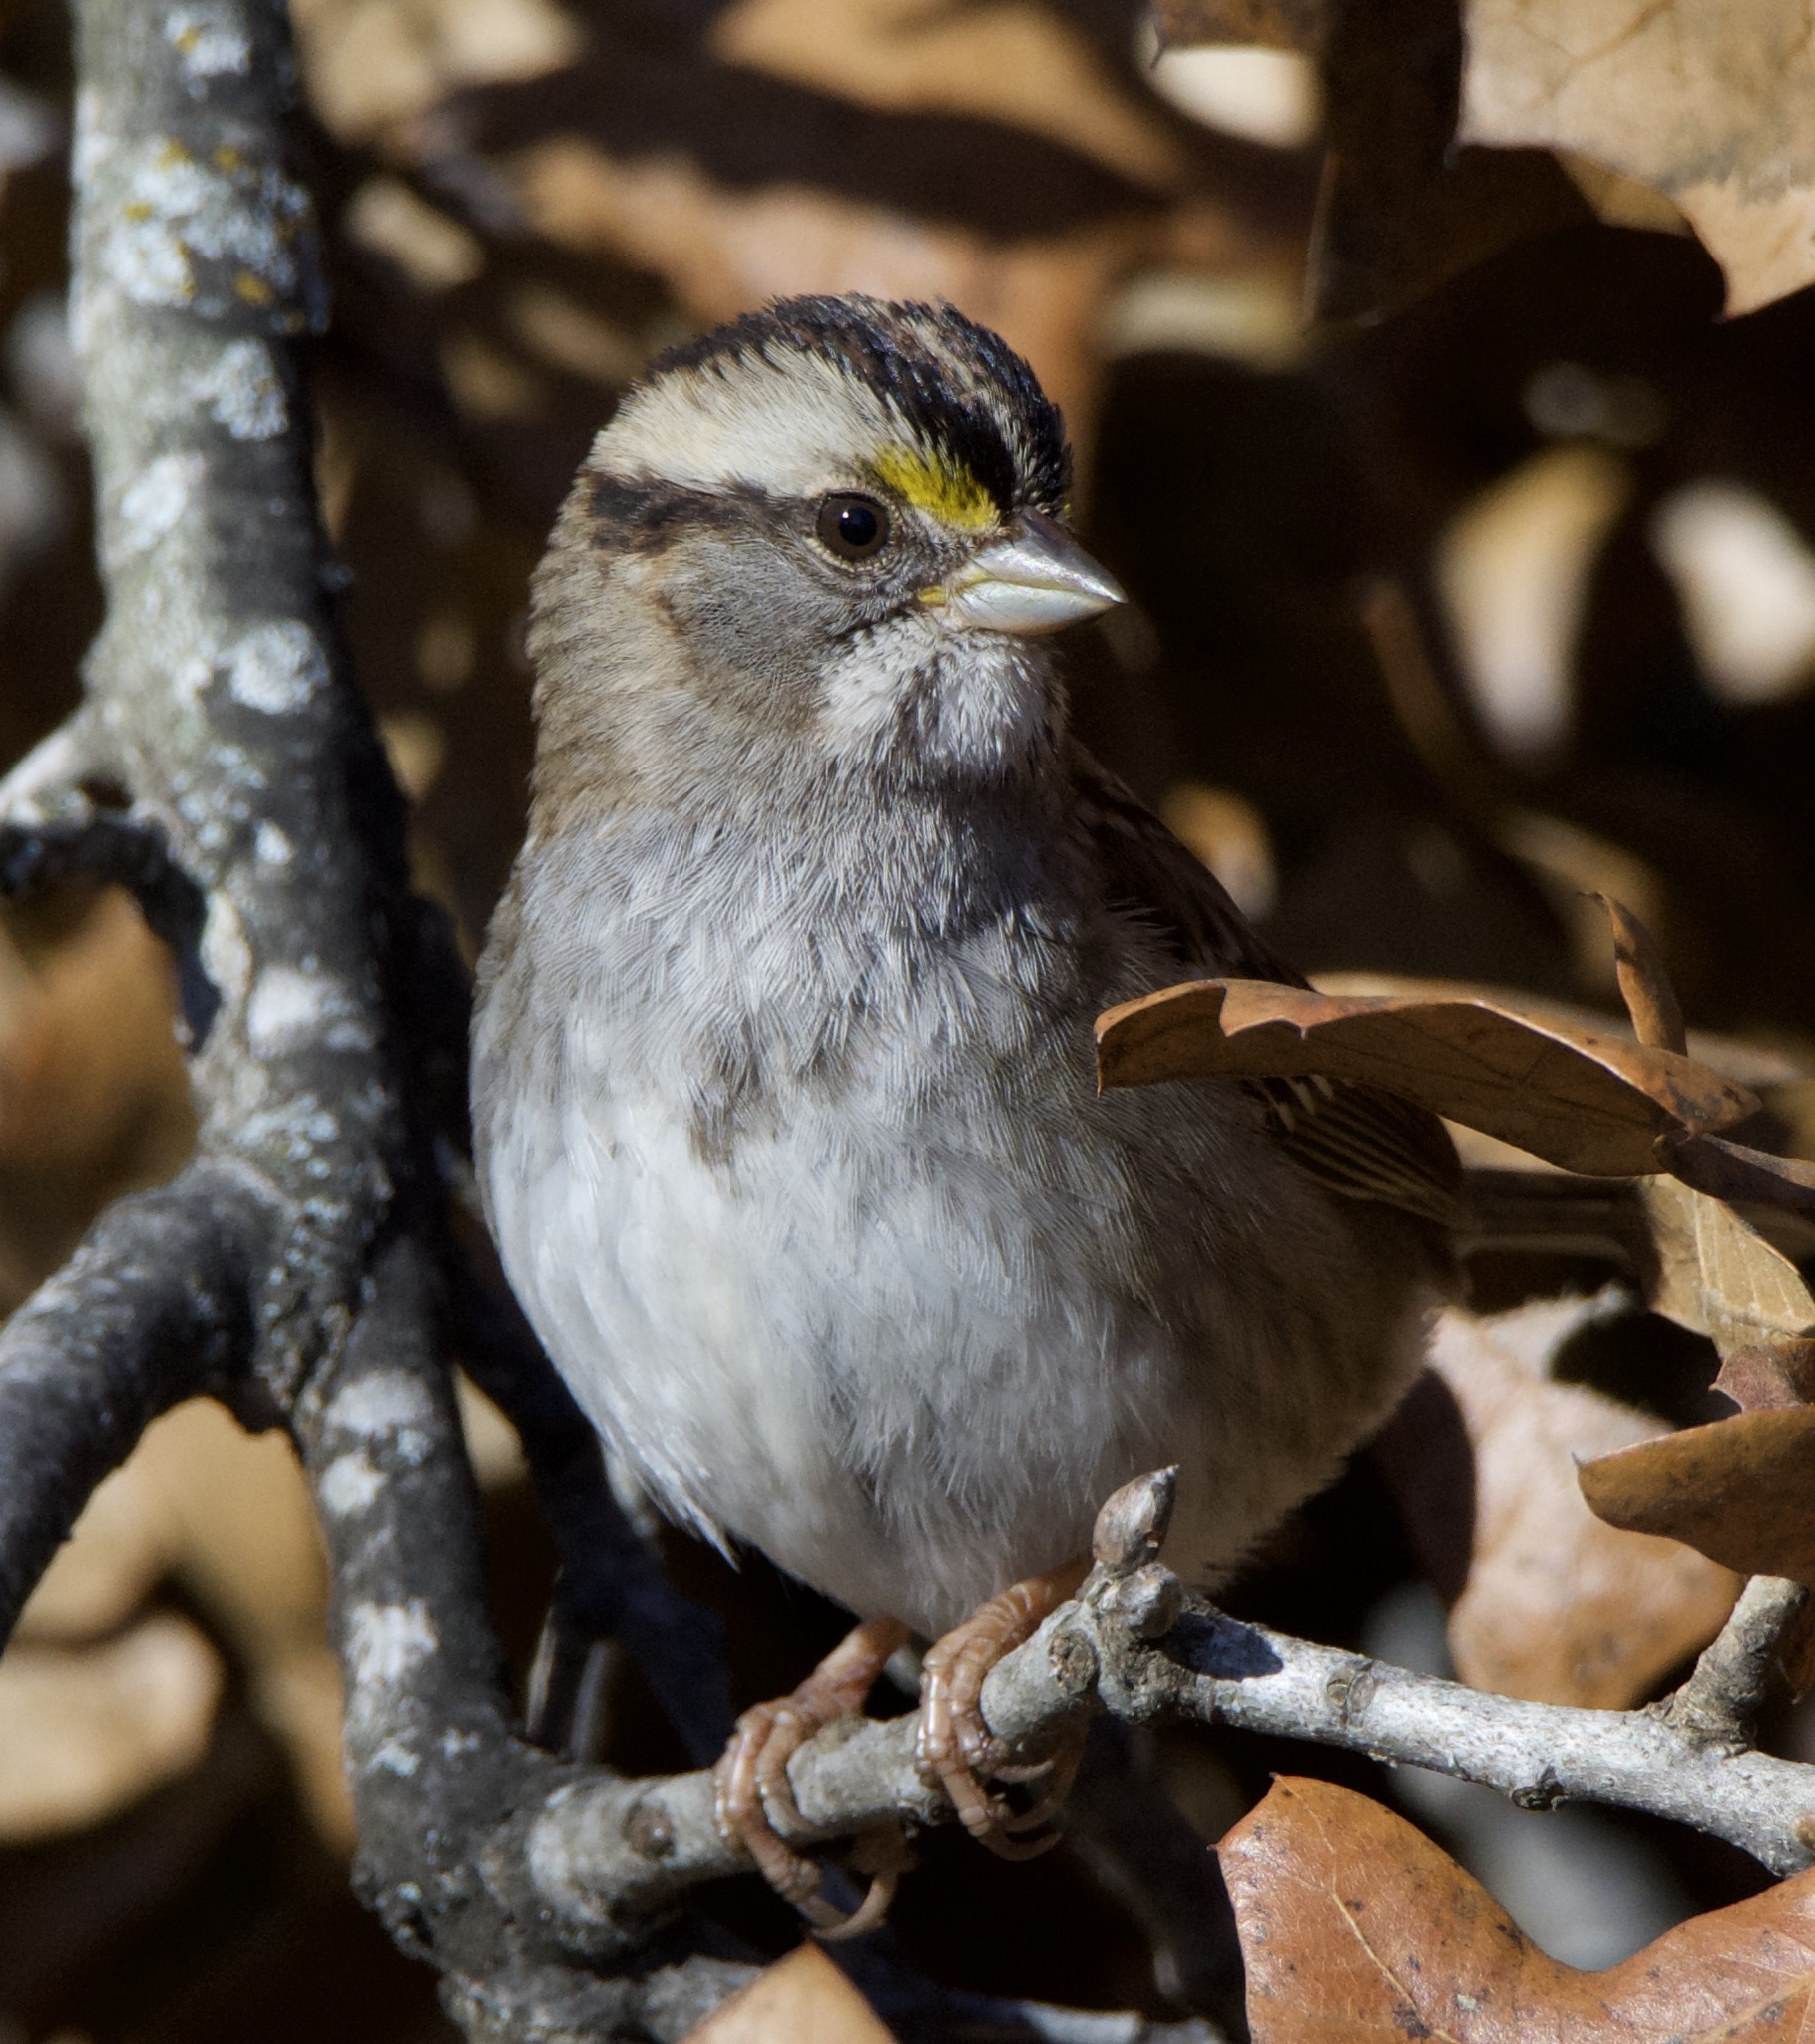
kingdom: Animalia
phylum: Chordata
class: Aves
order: Passeriformes
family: Passerellidae
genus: Zonotrichia
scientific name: Zonotrichia albicollis
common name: White-throated sparrow
